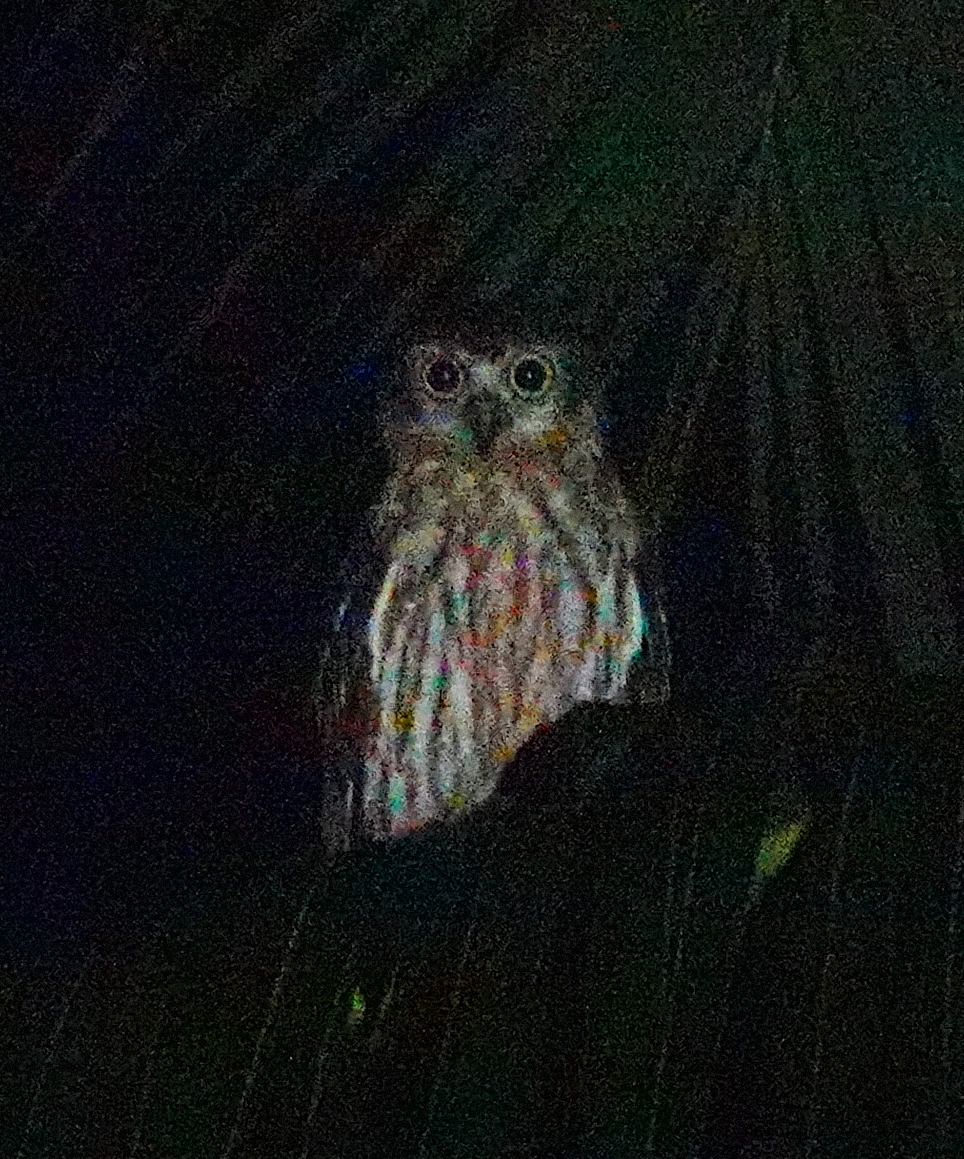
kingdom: Animalia
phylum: Chordata
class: Aves
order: Strigiformes
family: Strigidae
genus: Ninox
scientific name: Ninox connivens
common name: Barking owl
